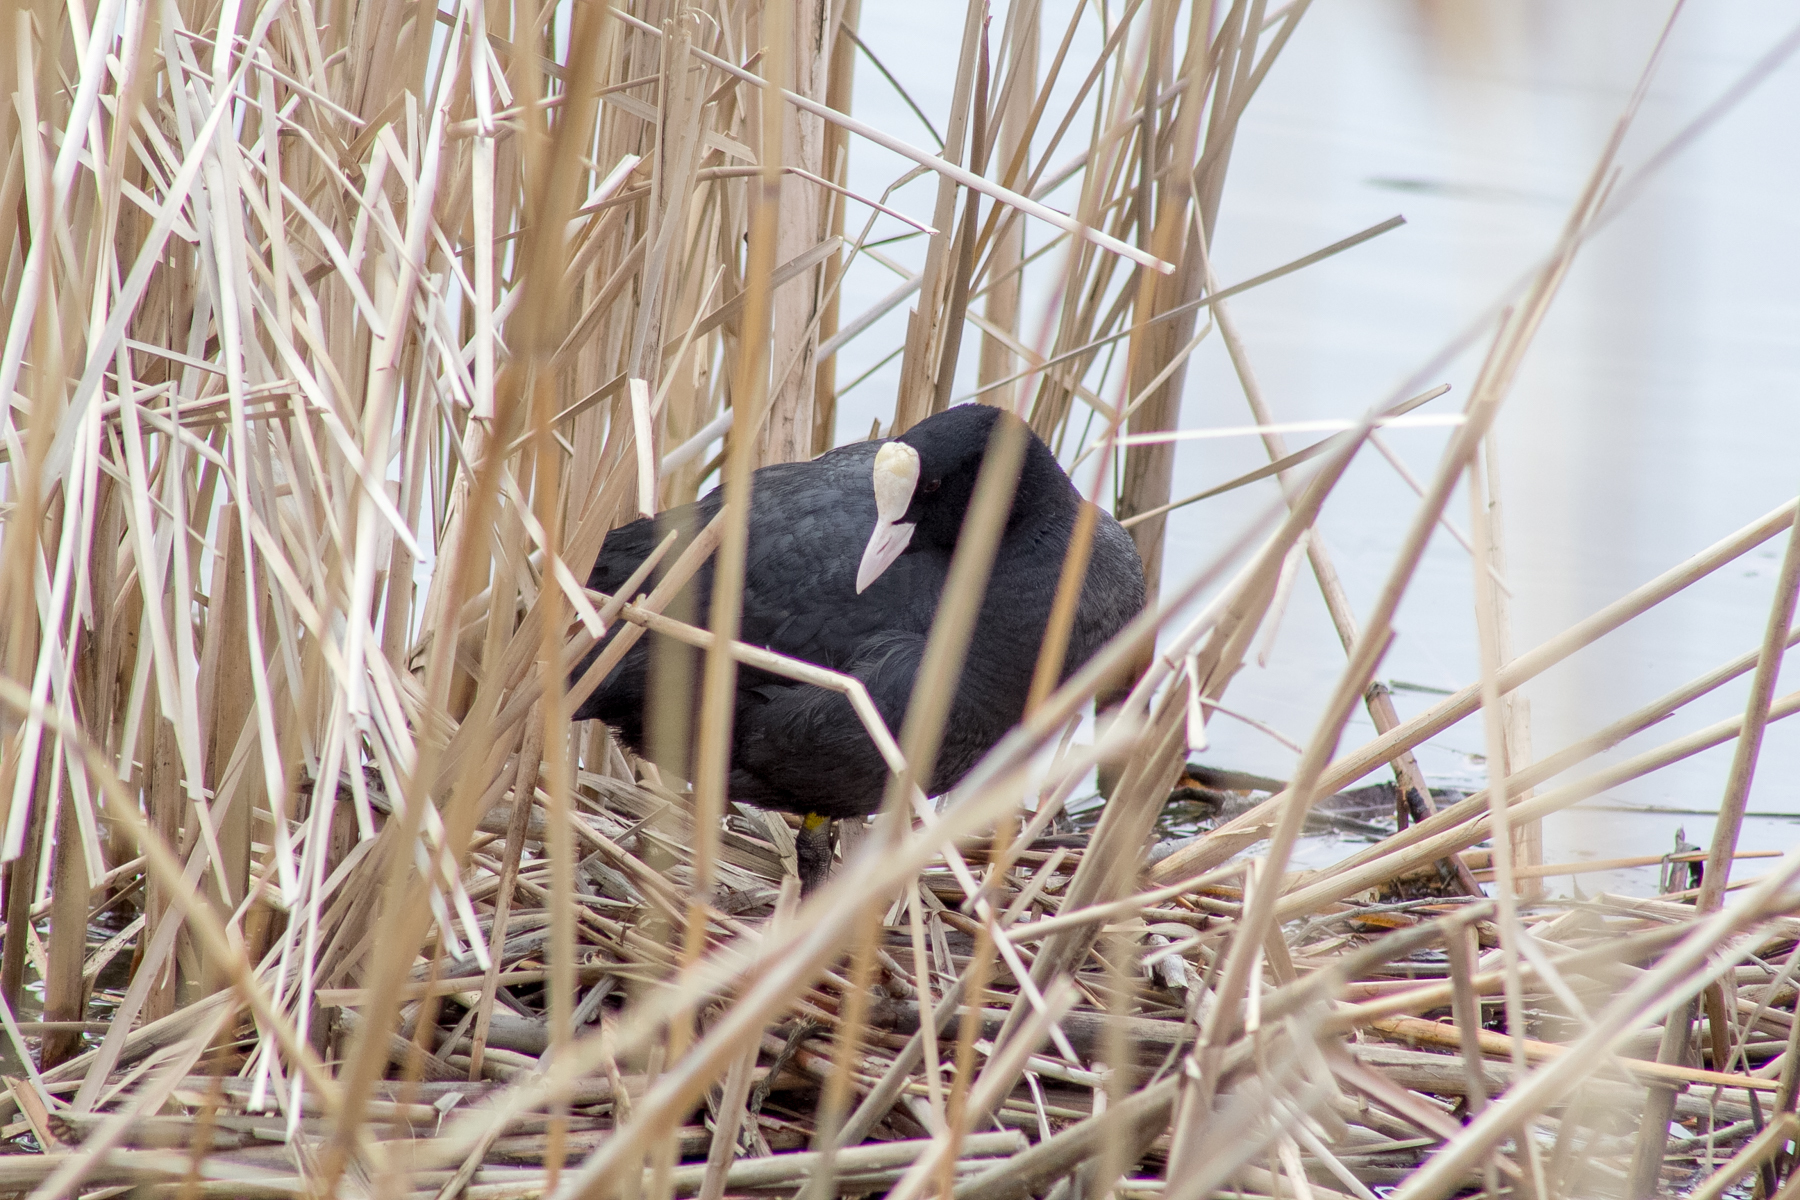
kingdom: Animalia
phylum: Chordata
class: Aves
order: Gruiformes
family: Rallidae
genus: Fulica
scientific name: Fulica atra
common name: Eurasian coot
